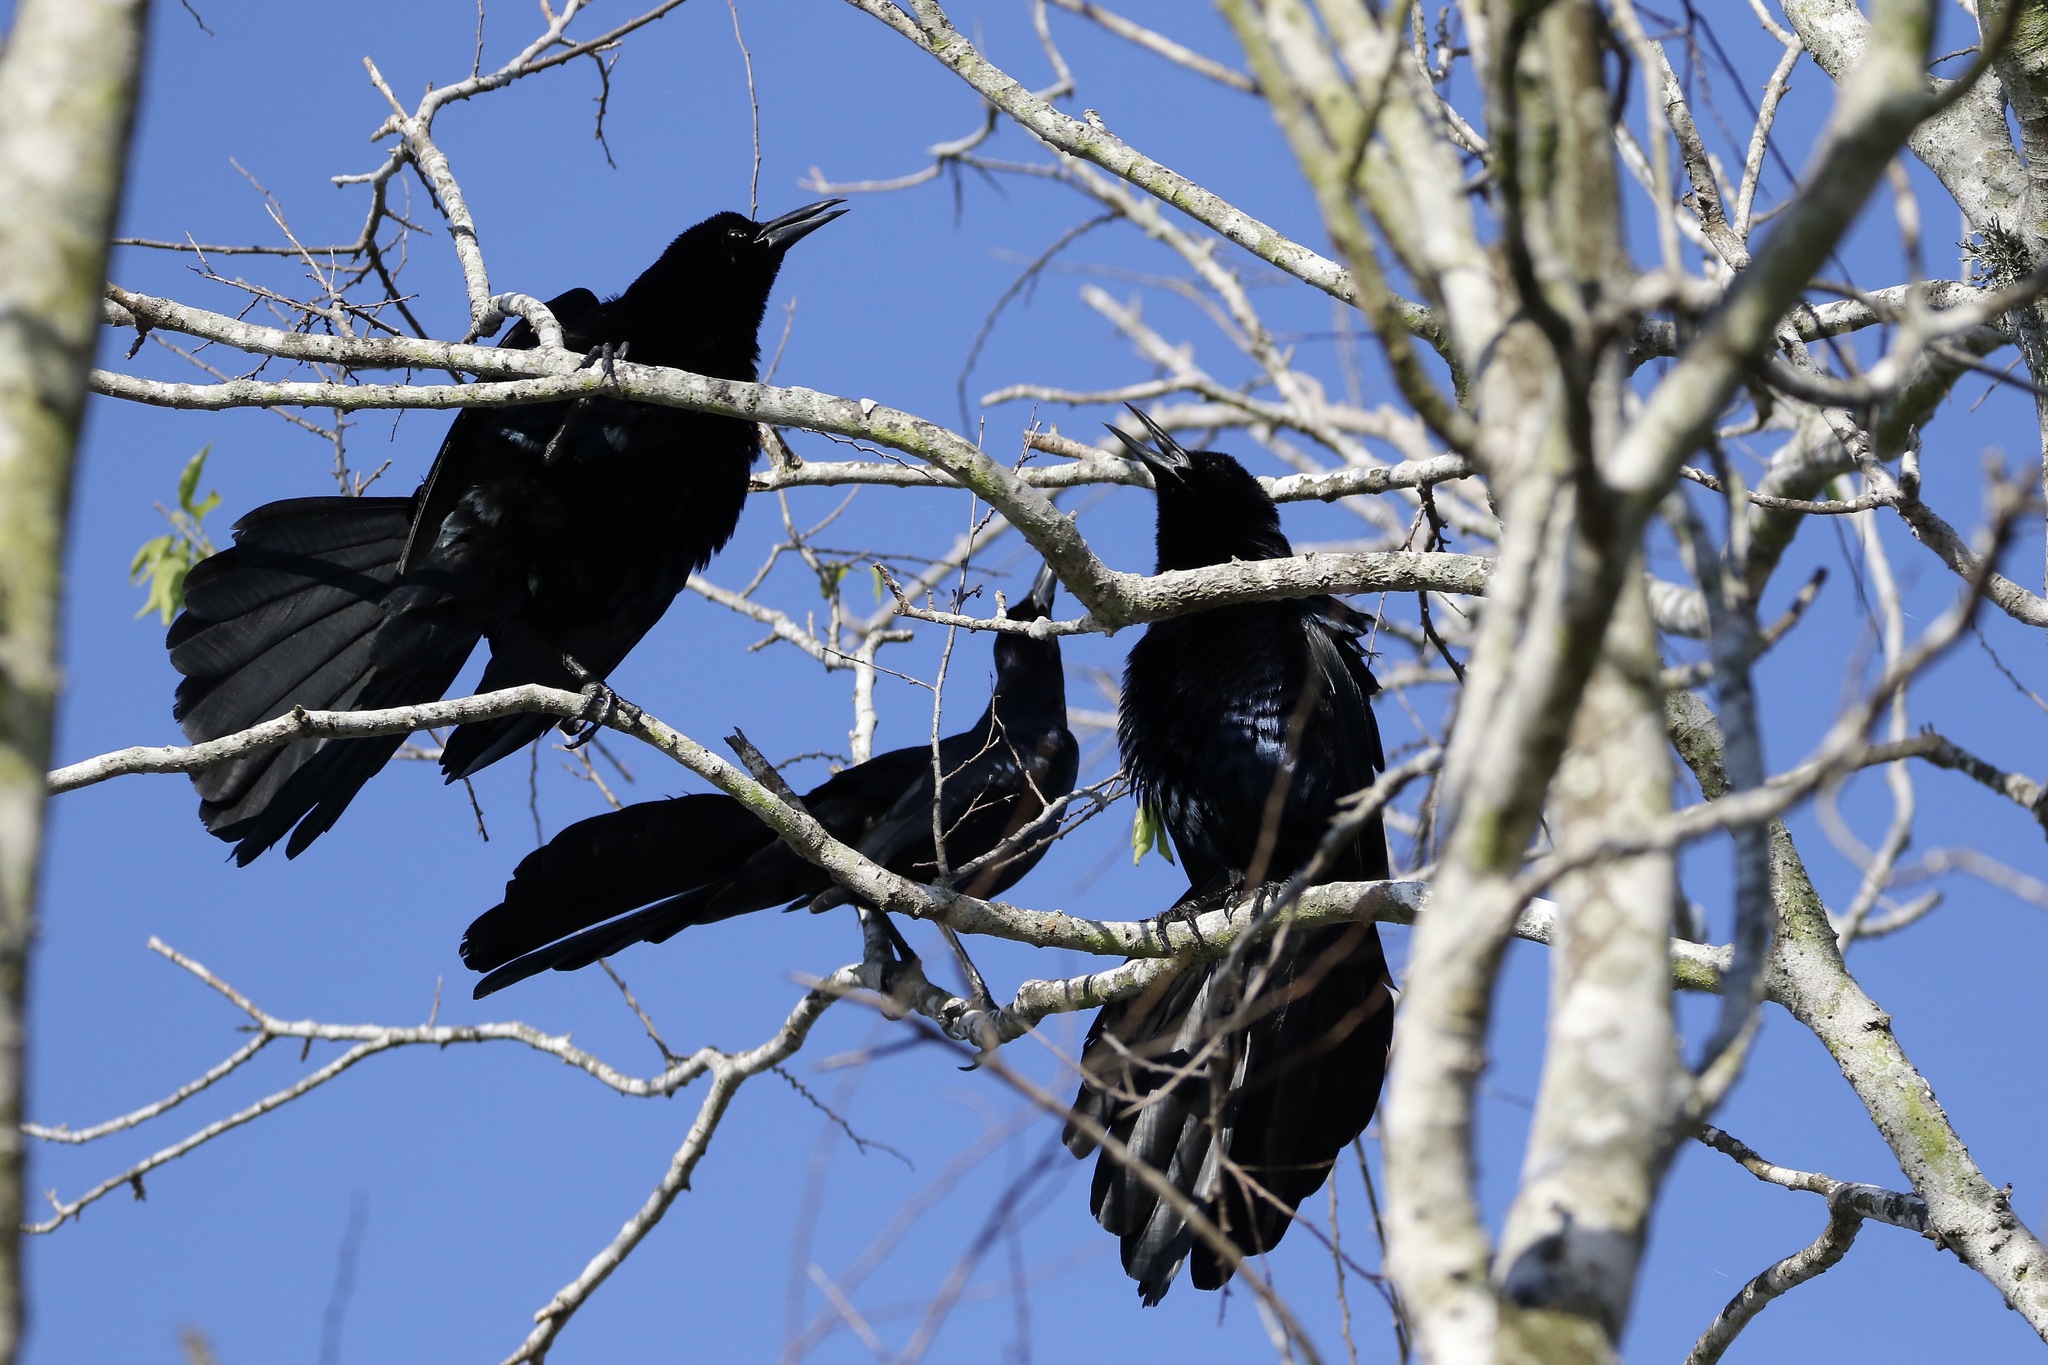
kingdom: Animalia
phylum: Chordata
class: Aves
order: Passeriformes
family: Icteridae
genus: Quiscalus
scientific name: Quiscalus mexicanus
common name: Great-tailed grackle
